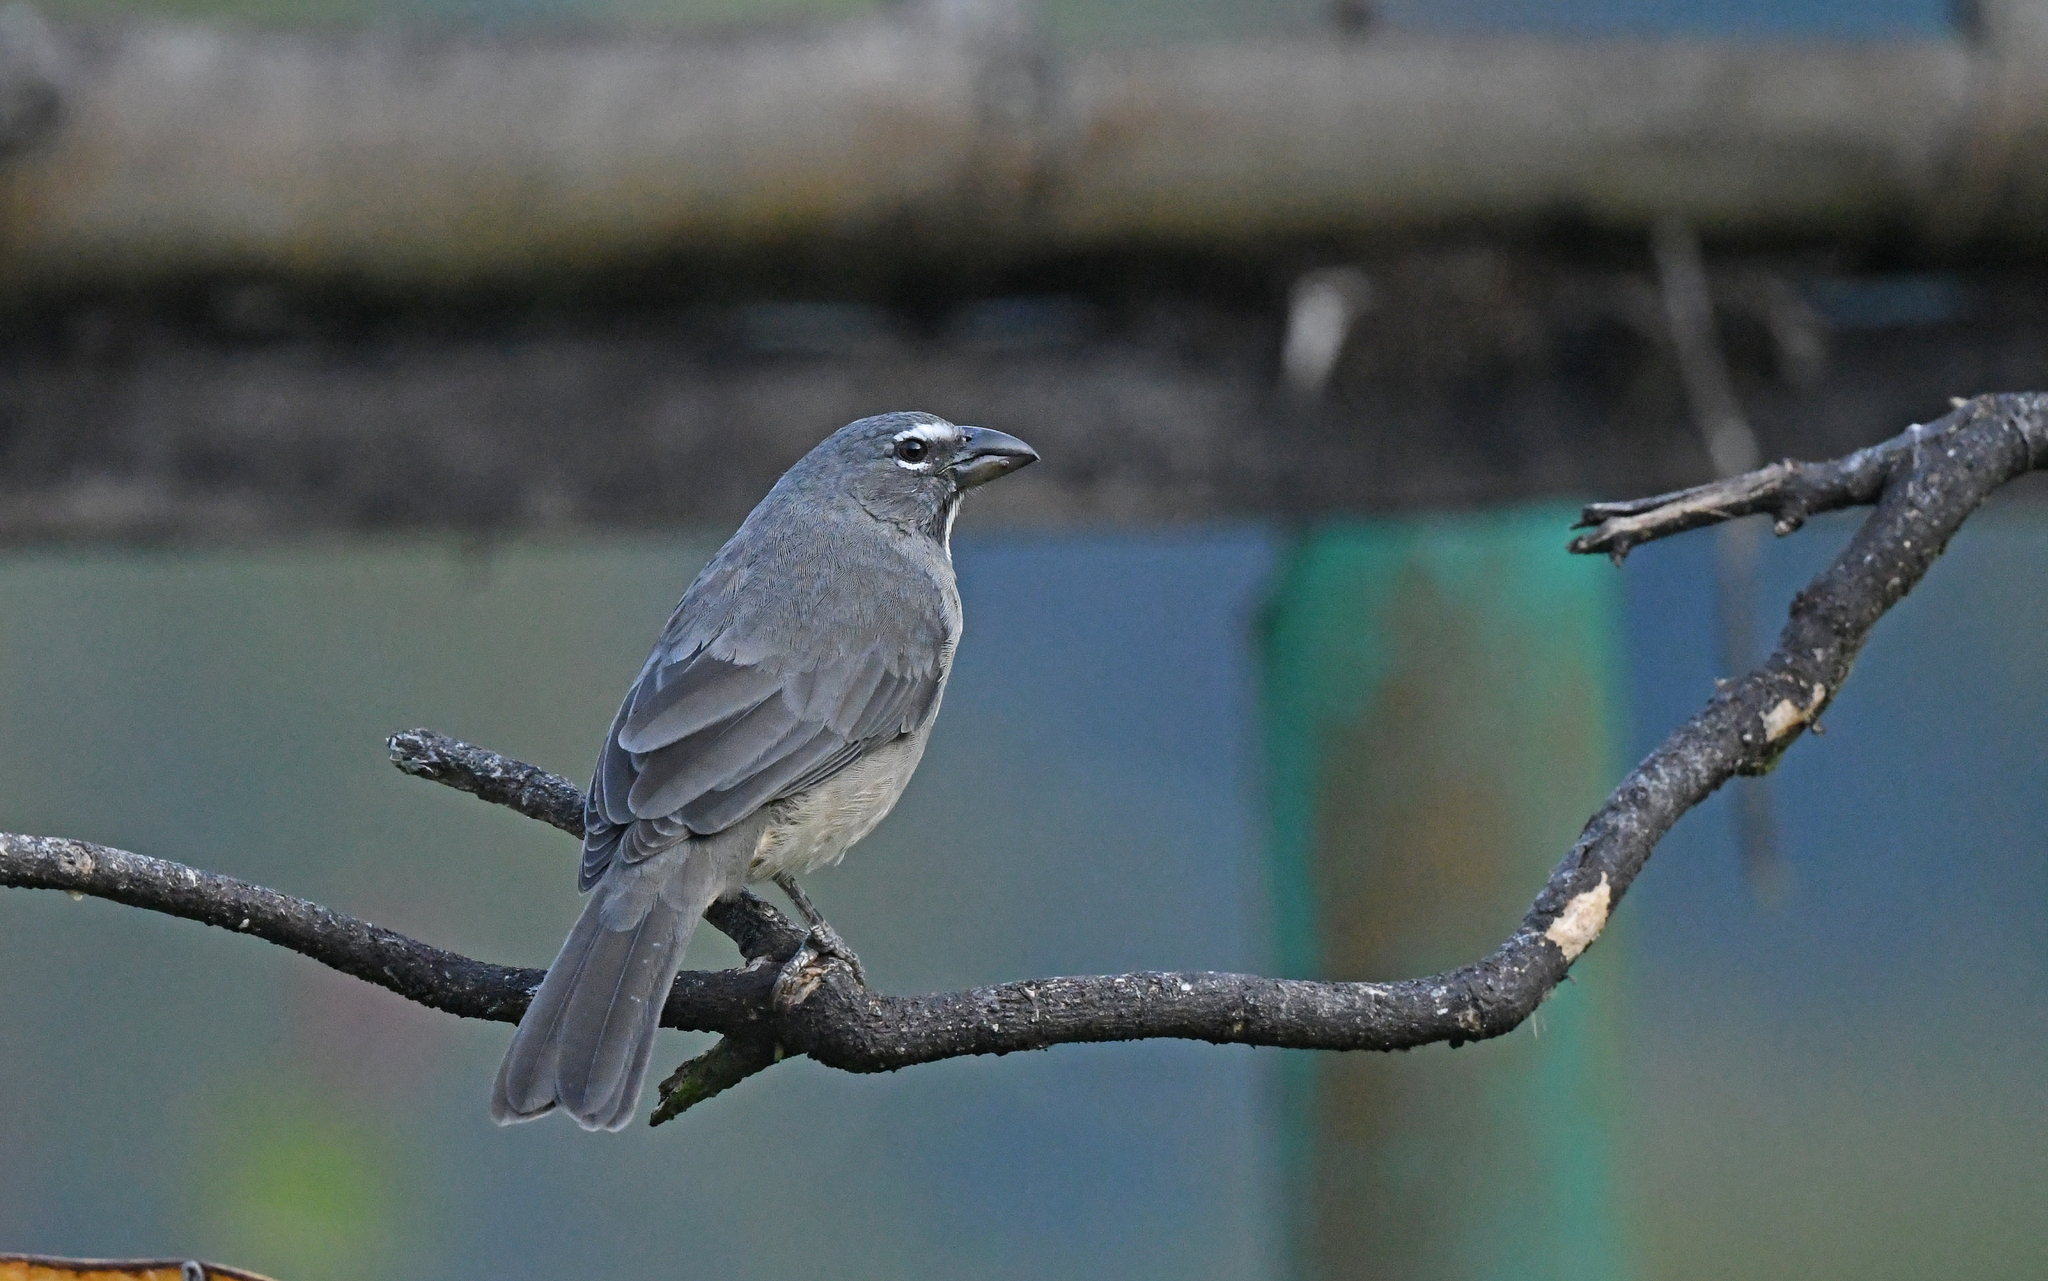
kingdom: Animalia
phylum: Chordata
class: Aves
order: Passeriformes
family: Thraupidae
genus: Saltator
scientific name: Saltator olivascens
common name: Caribbean grey saltator
